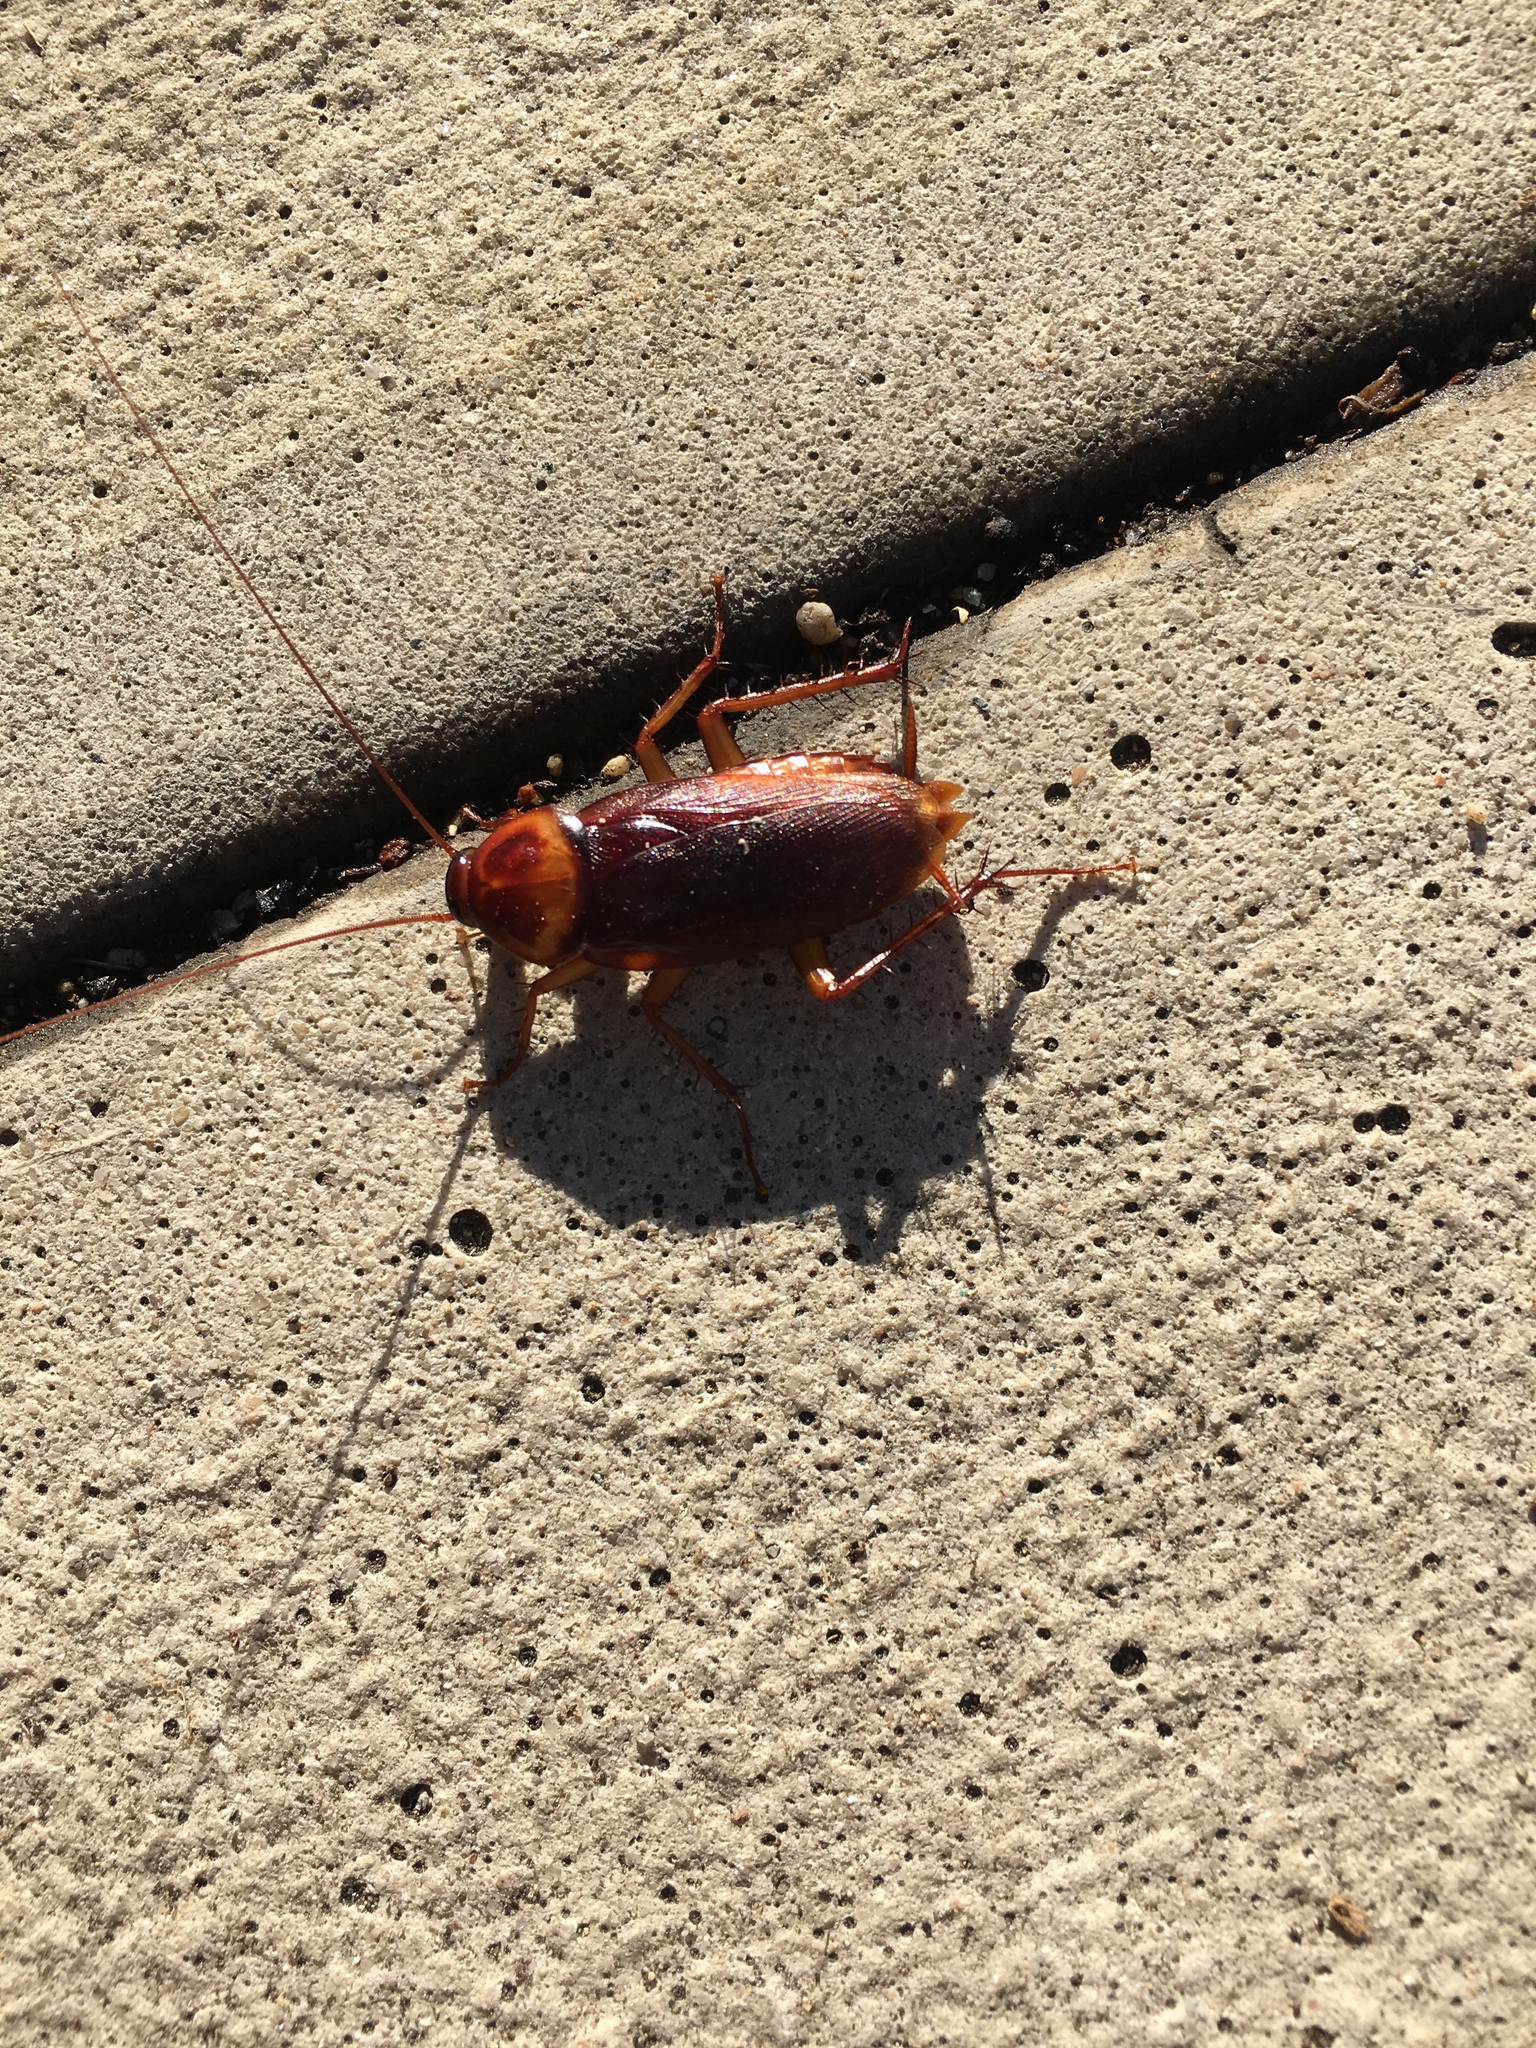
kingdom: Animalia
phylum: Arthropoda
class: Insecta
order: Blattodea
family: Blattidae
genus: Periplaneta
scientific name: Periplaneta americana
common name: American cockroach
